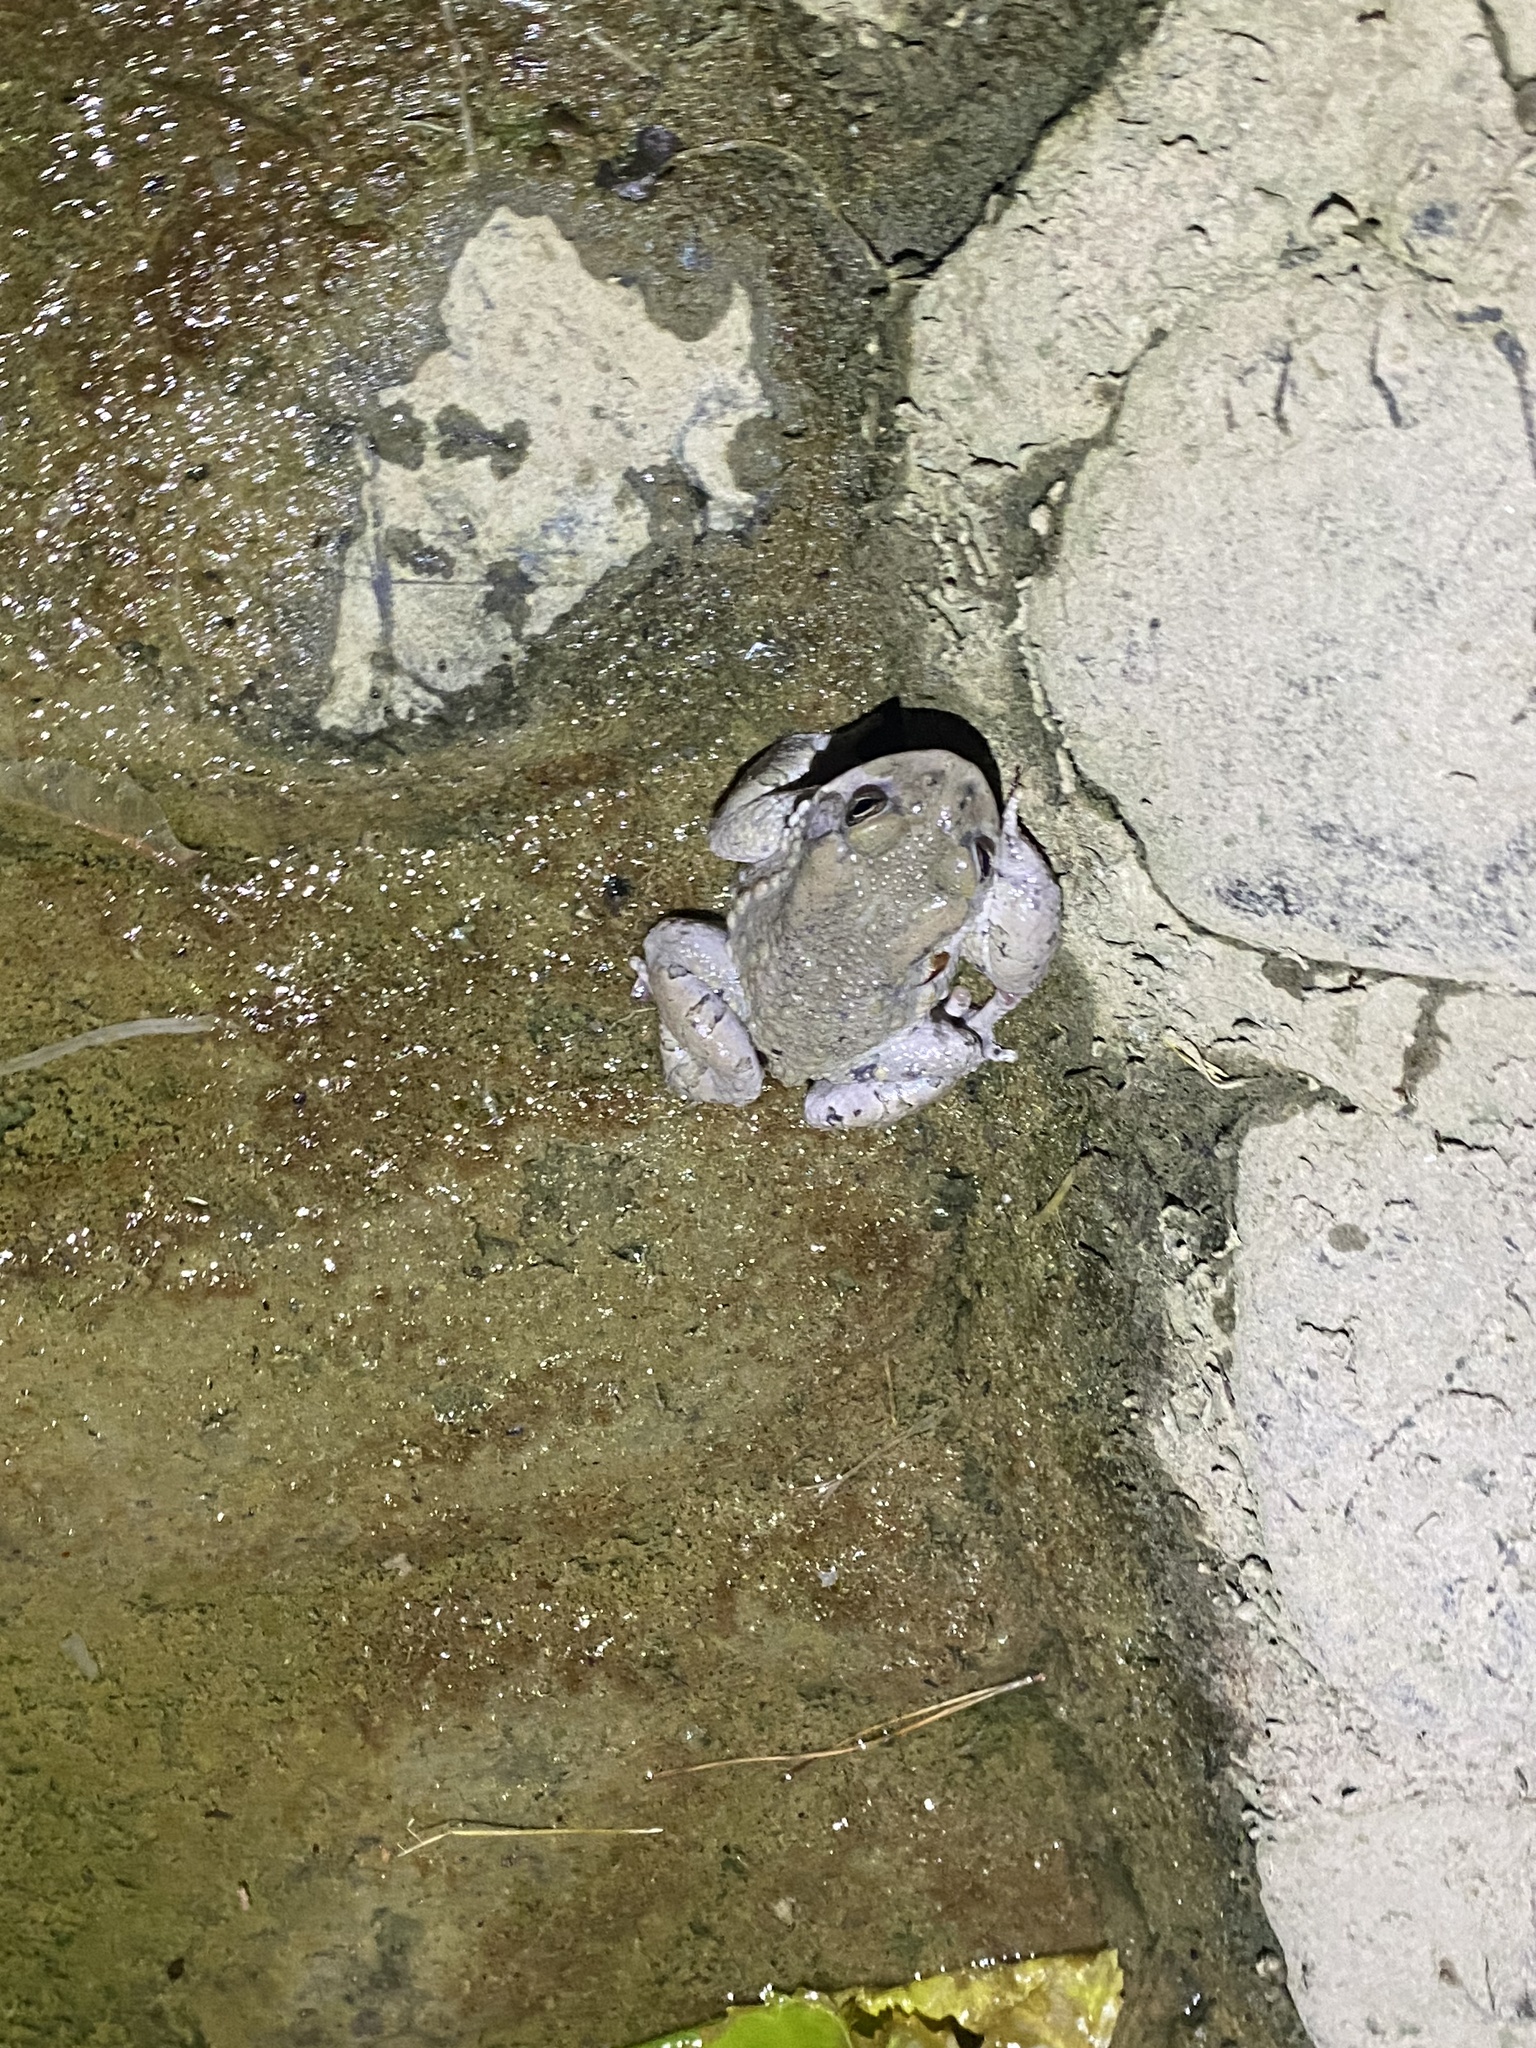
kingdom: Animalia
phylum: Chordata
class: Amphibia
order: Anura
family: Bufonidae
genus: Bufotes
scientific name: Bufotes viridis
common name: European green toad
